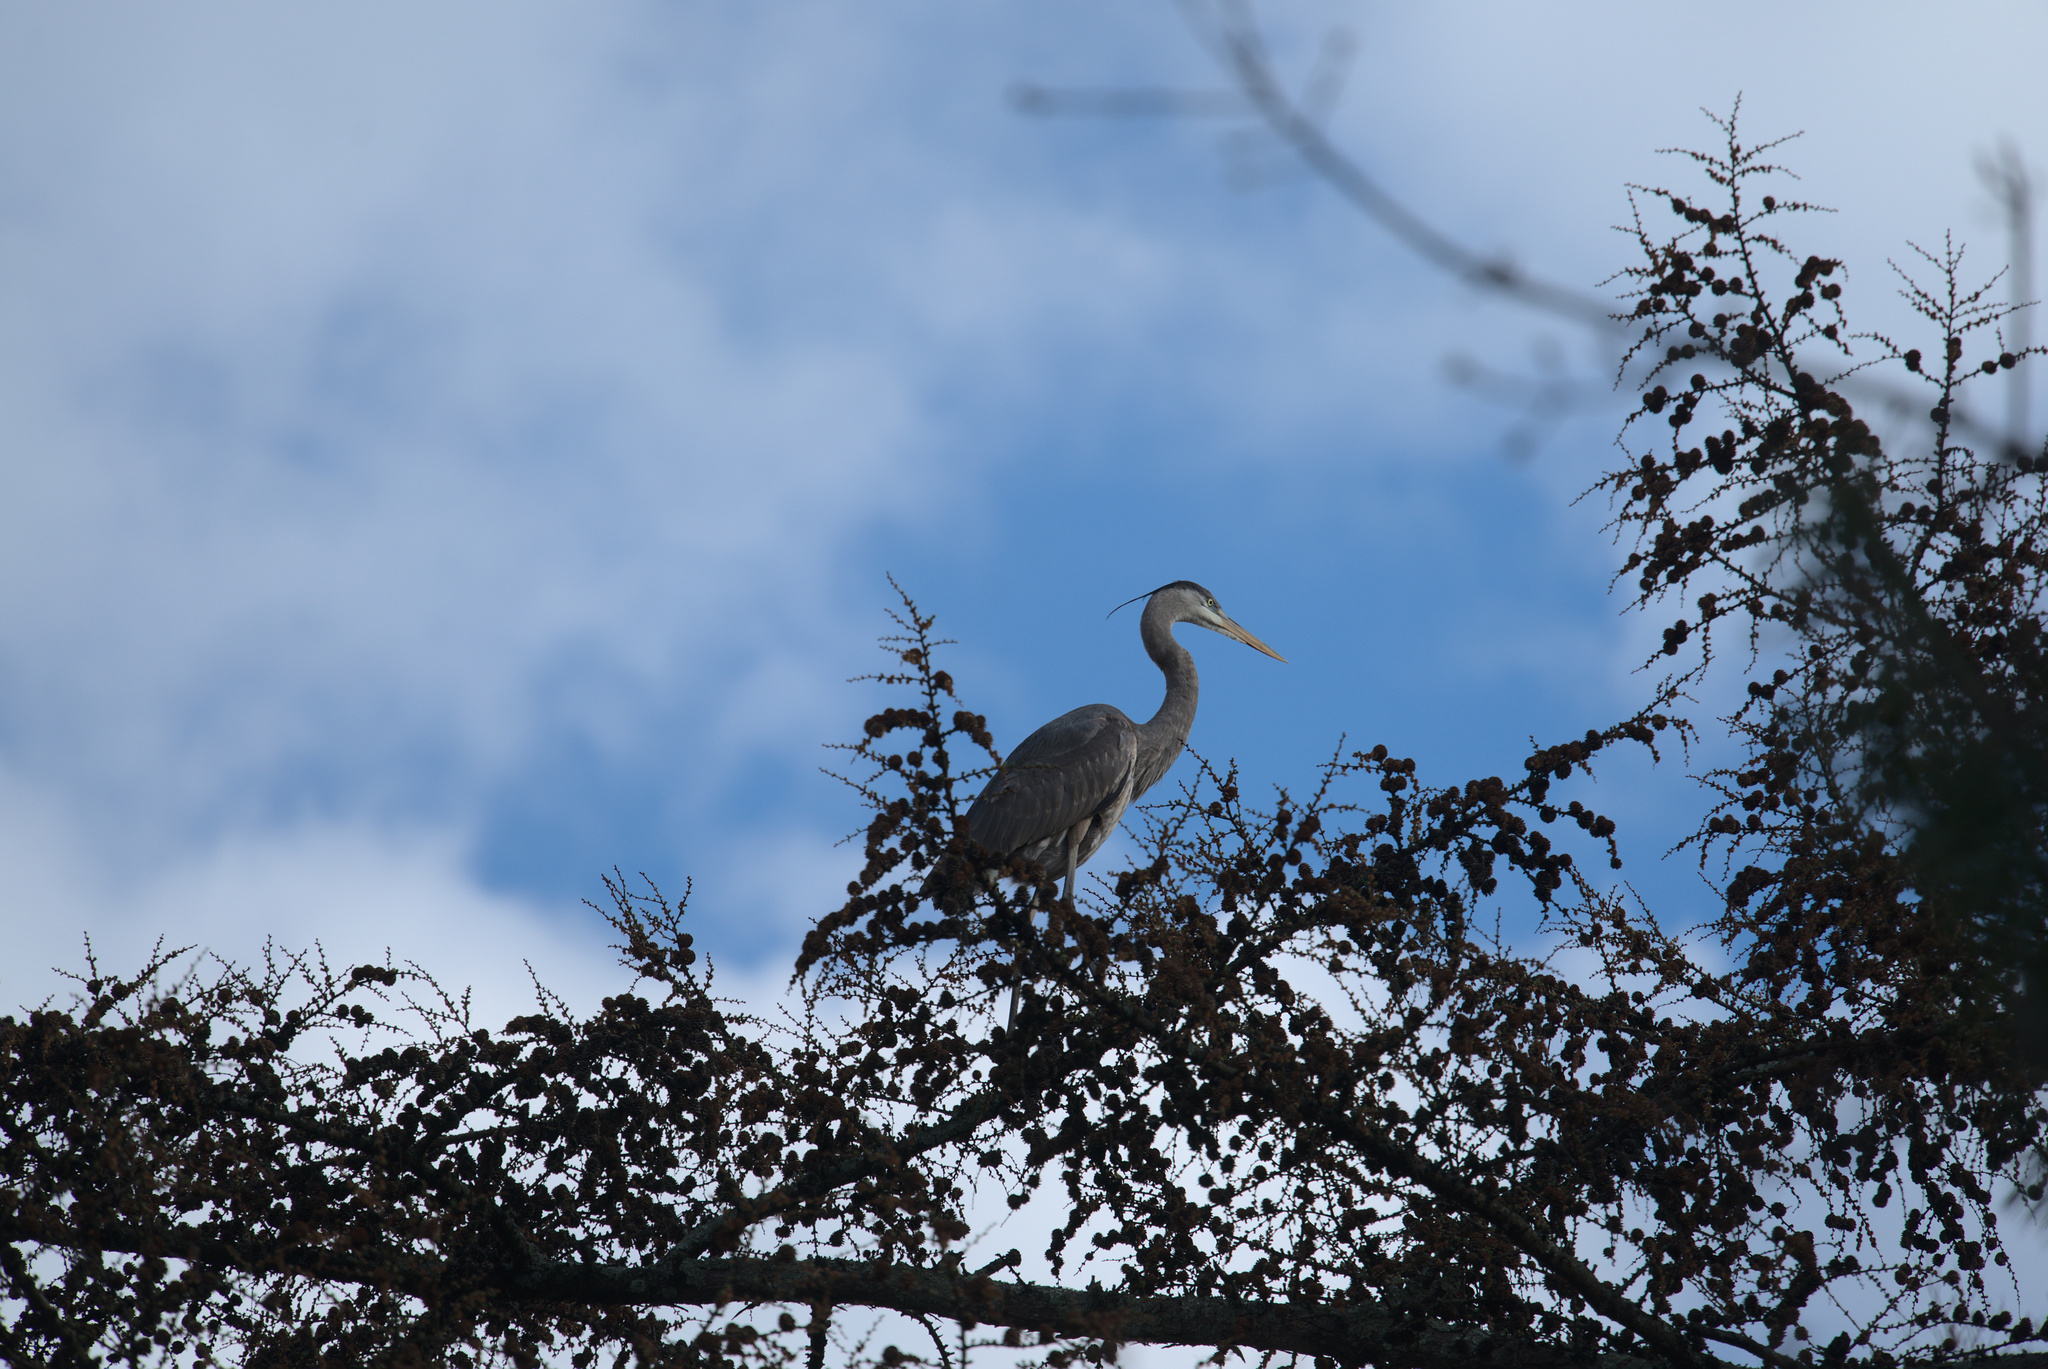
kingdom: Animalia
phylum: Chordata
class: Aves
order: Pelecaniformes
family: Ardeidae
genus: Ardea
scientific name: Ardea herodias
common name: Great blue heron
